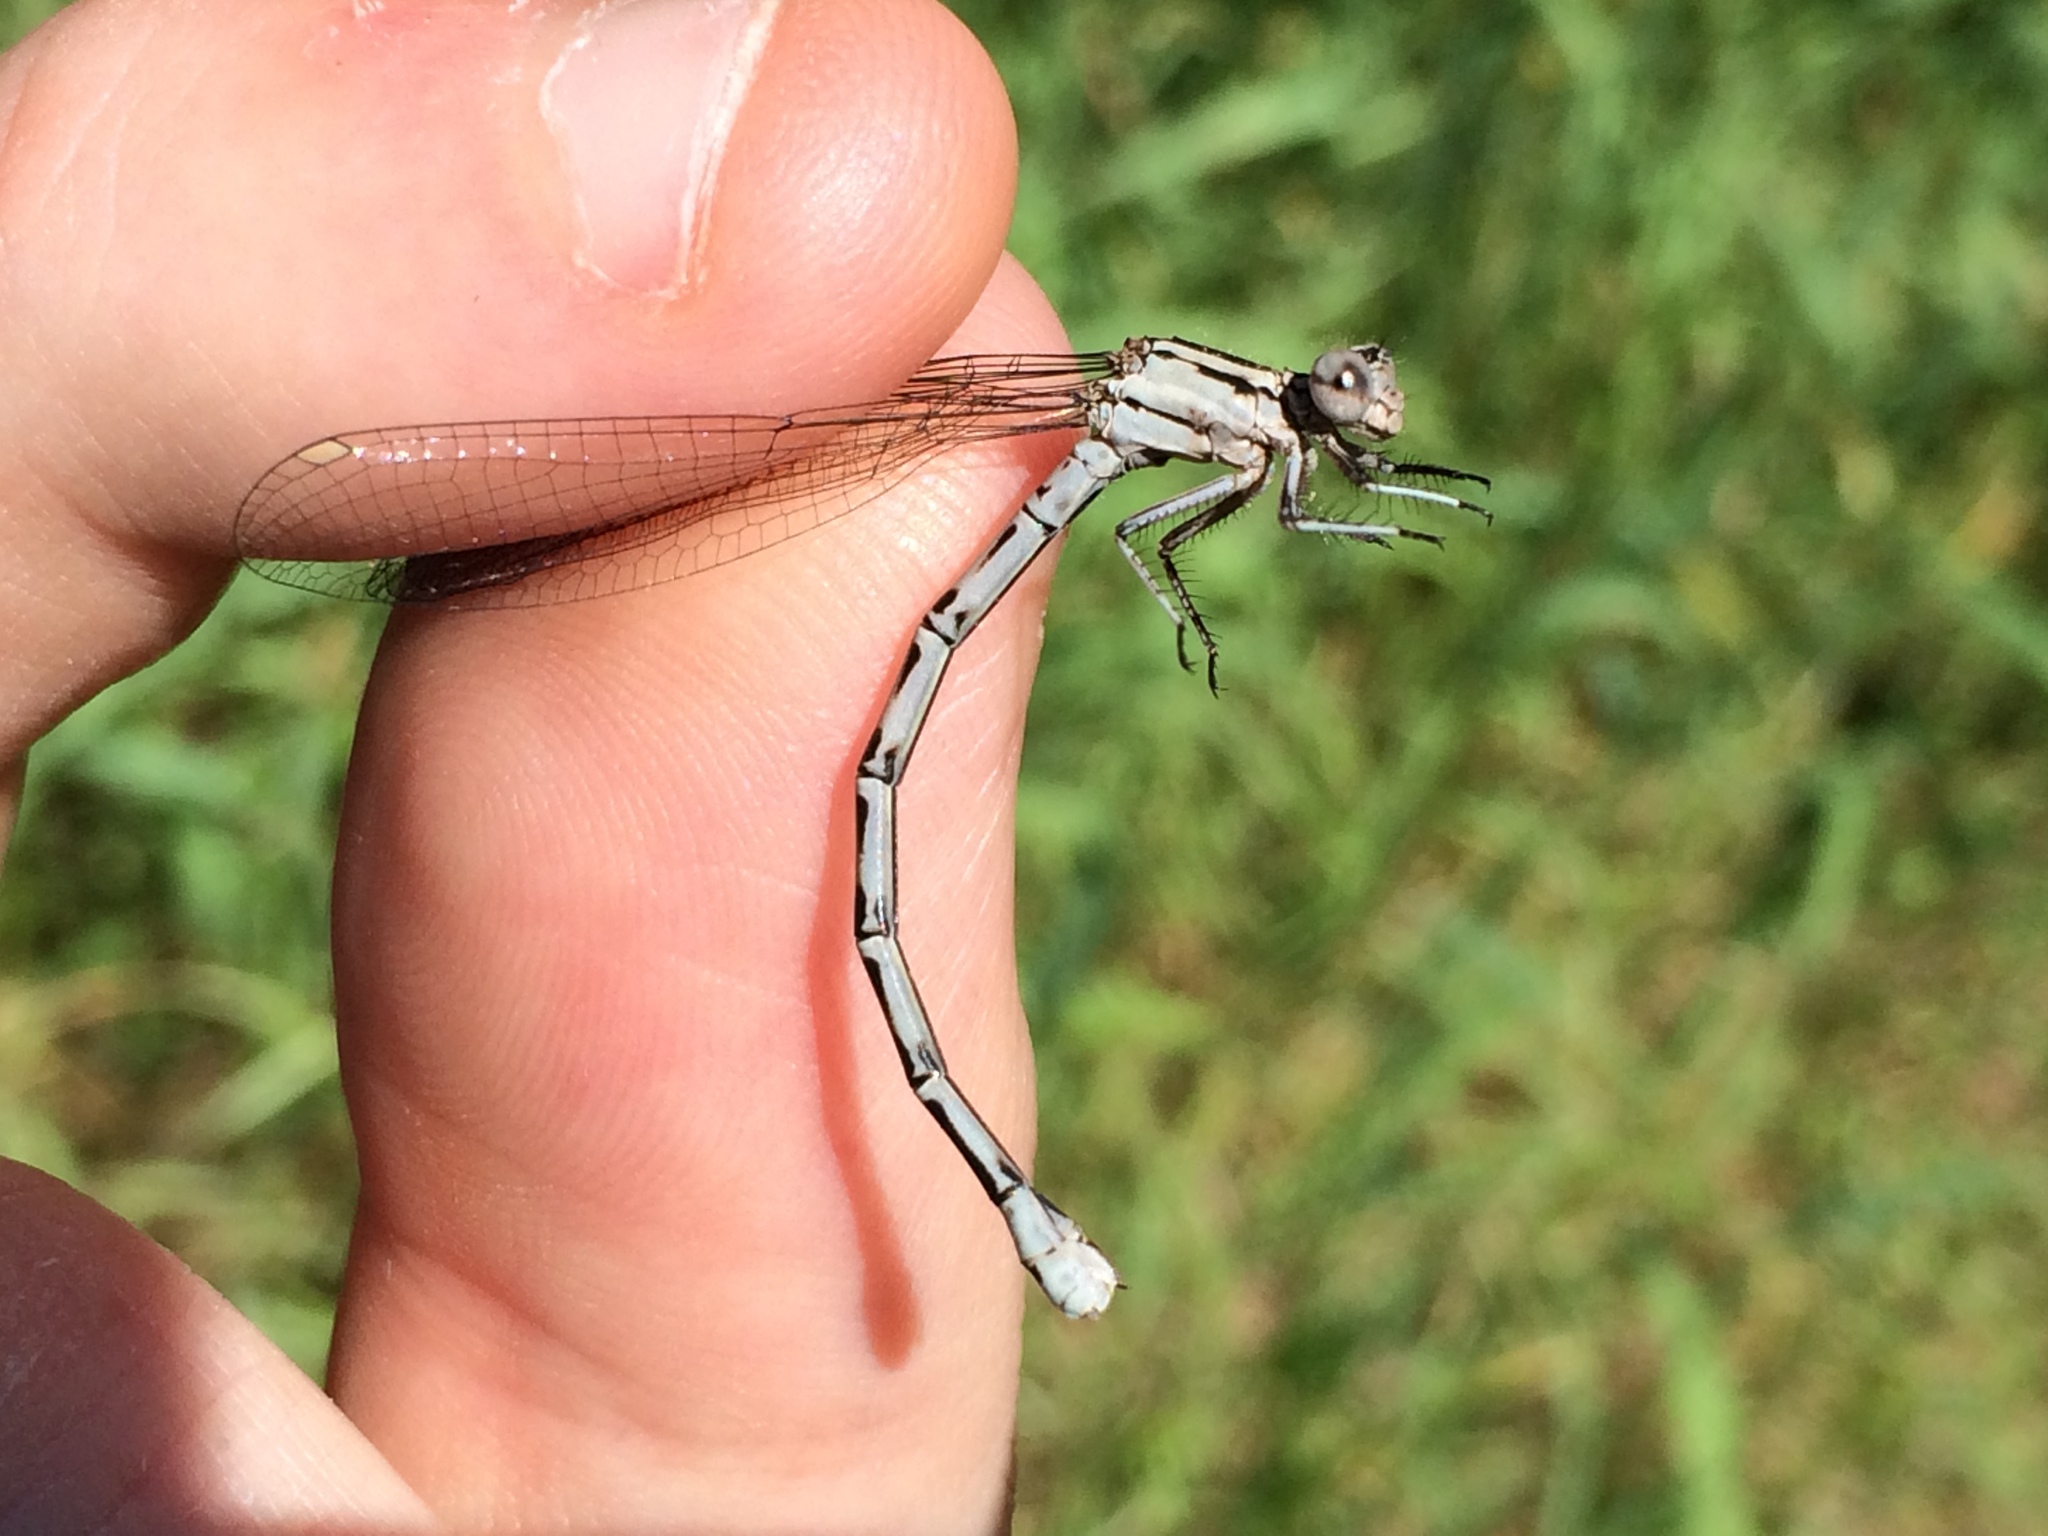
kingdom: Animalia
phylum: Arthropoda
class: Insecta
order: Odonata
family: Coenagrionidae
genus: Argia
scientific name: Argia vivida
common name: Vivid dancer
